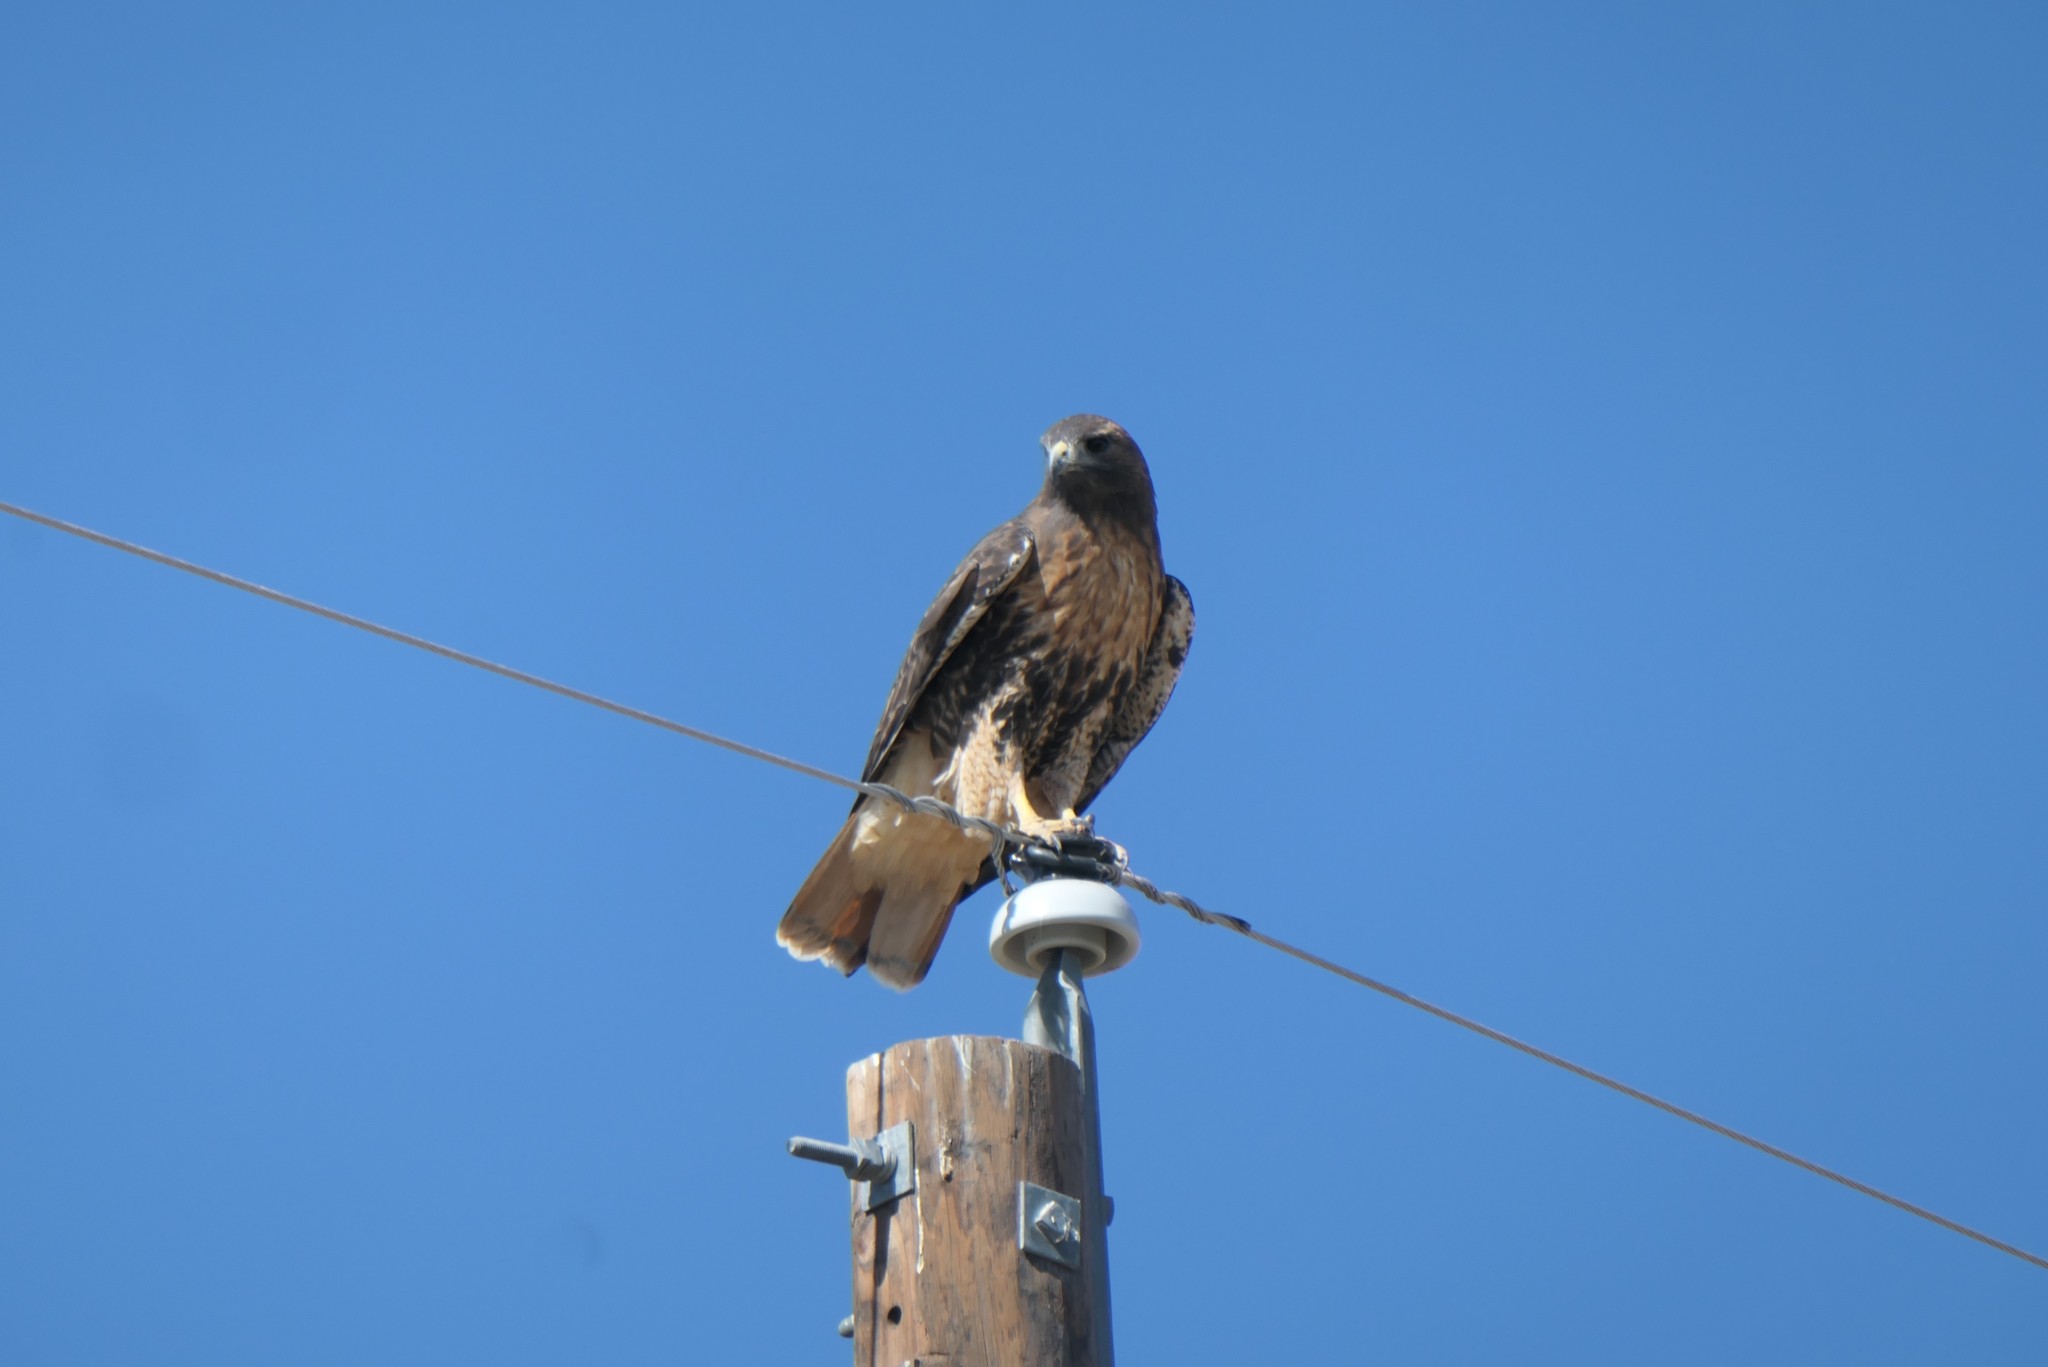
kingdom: Animalia
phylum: Chordata
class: Aves
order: Accipitriformes
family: Accipitridae
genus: Buteo
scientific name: Buteo jamaicensis
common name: Red-tailed hawk
